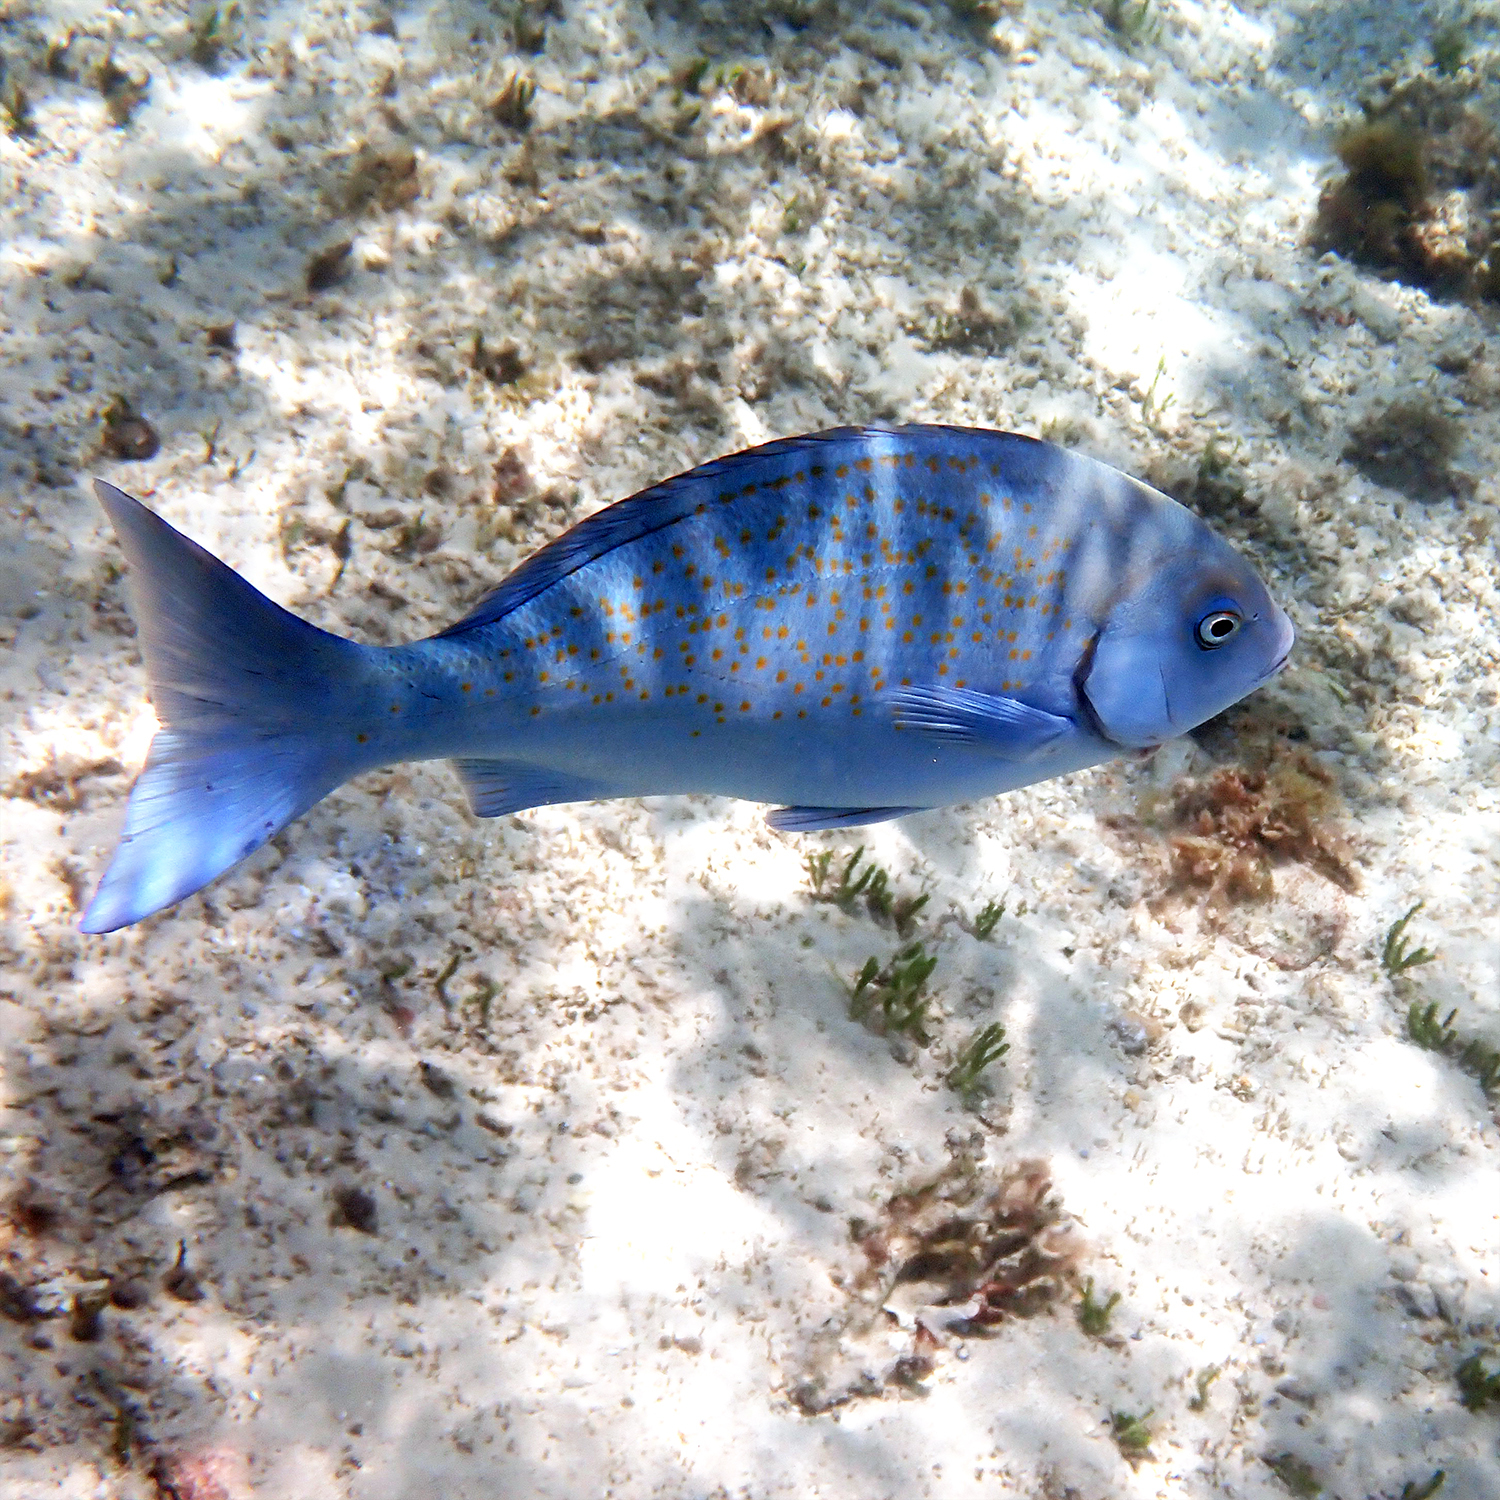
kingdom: Animalia
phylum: Chordata
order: Perciformes
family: Kyphosidae
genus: Girella
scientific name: Girella cyanea
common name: Bluefish
